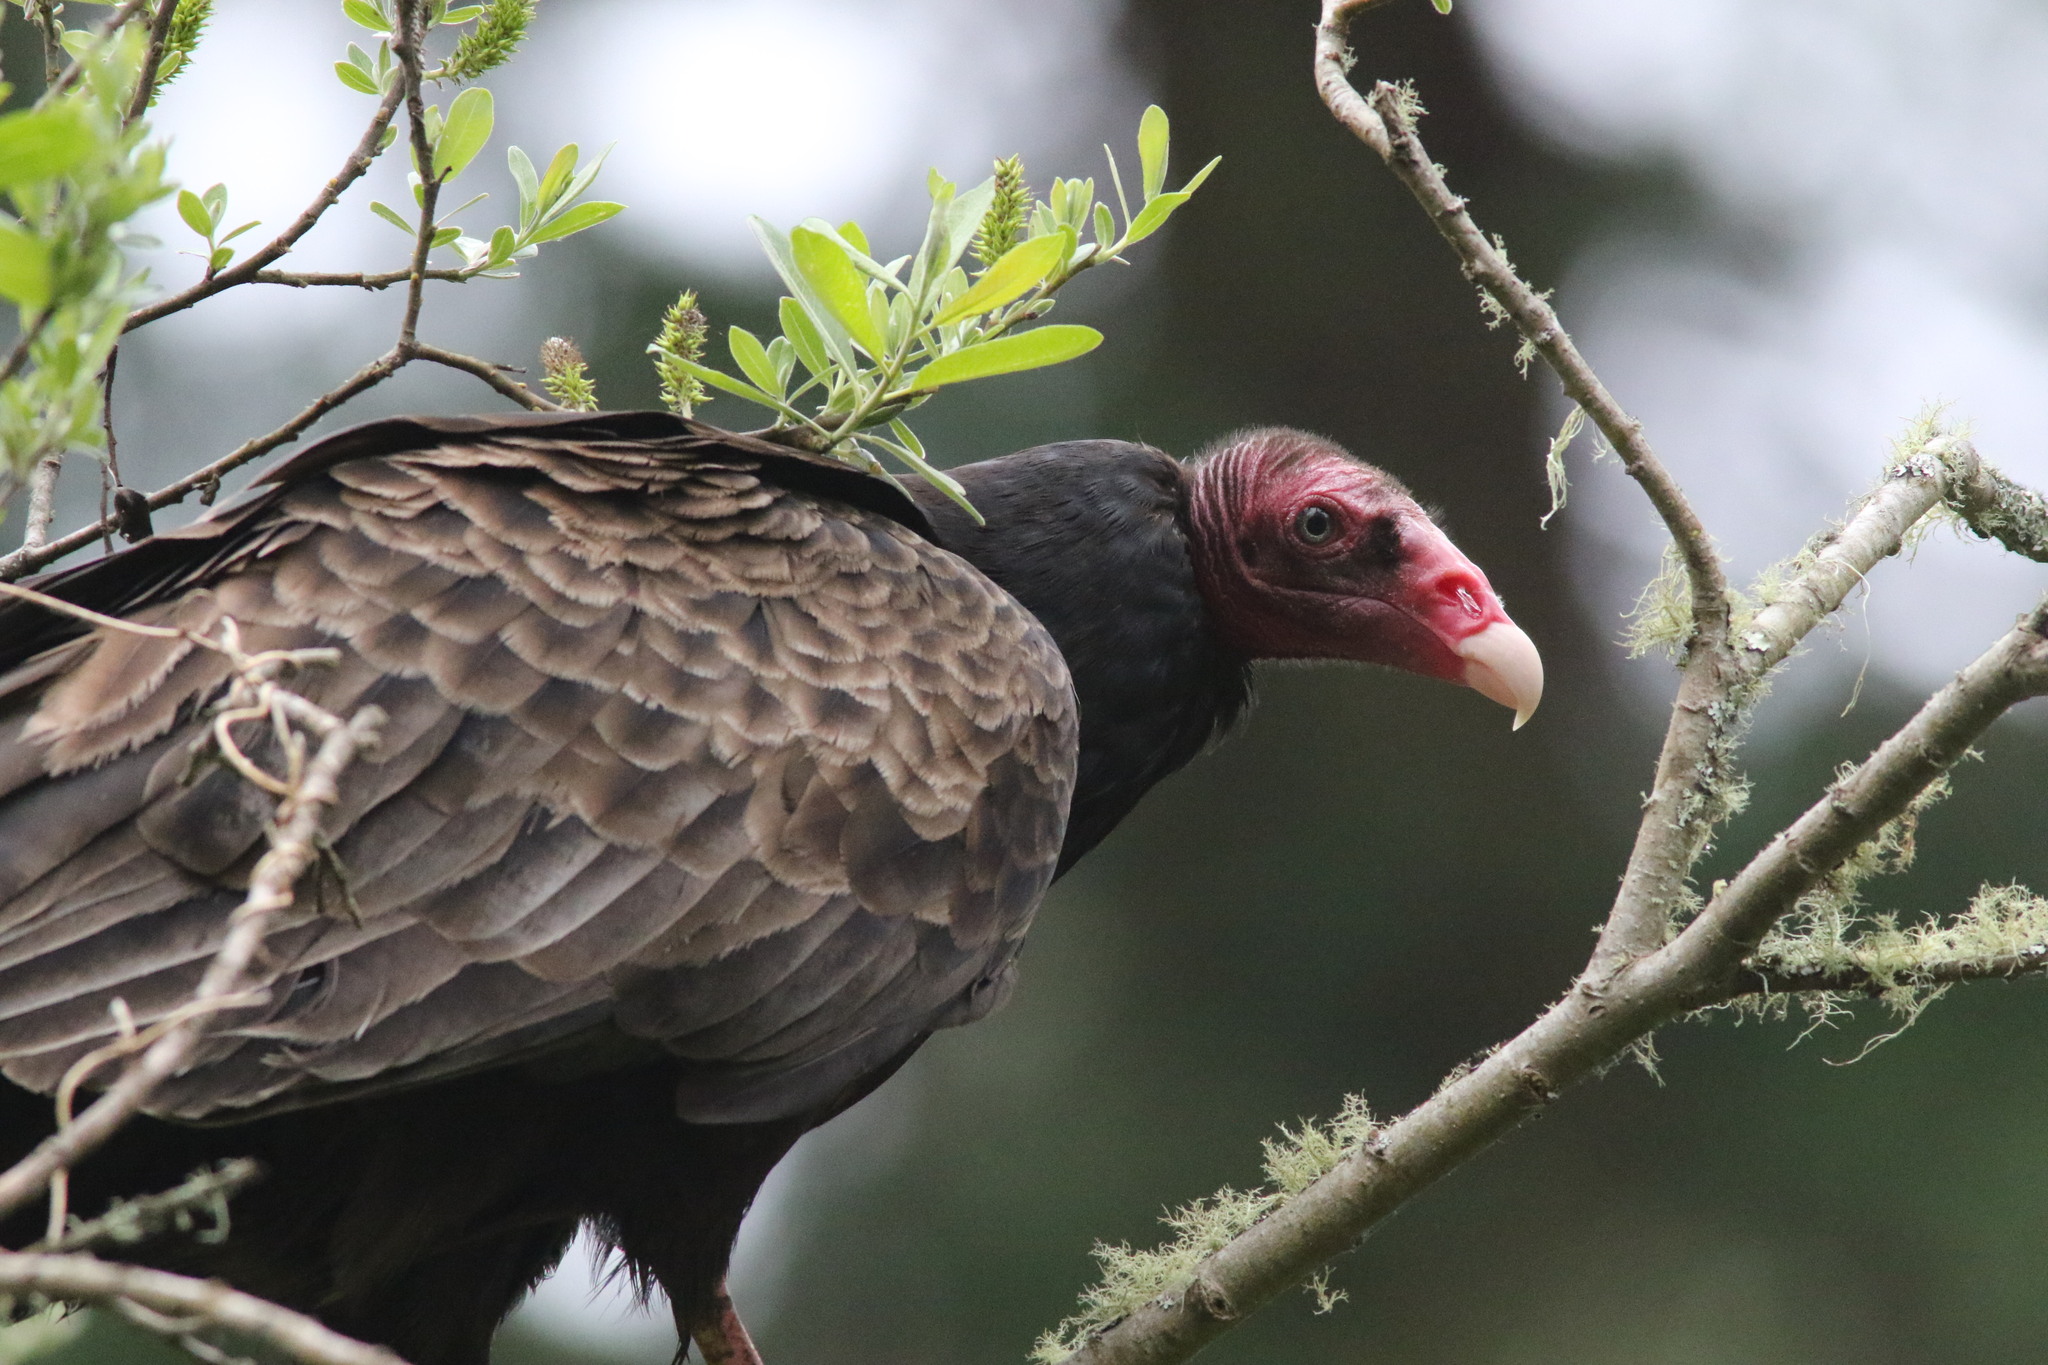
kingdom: Animalia
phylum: Chordata
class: Aves
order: Accipitriformes
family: Cathartidae
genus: Cathartes
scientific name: Cathartes aura
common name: Turkey vulture
